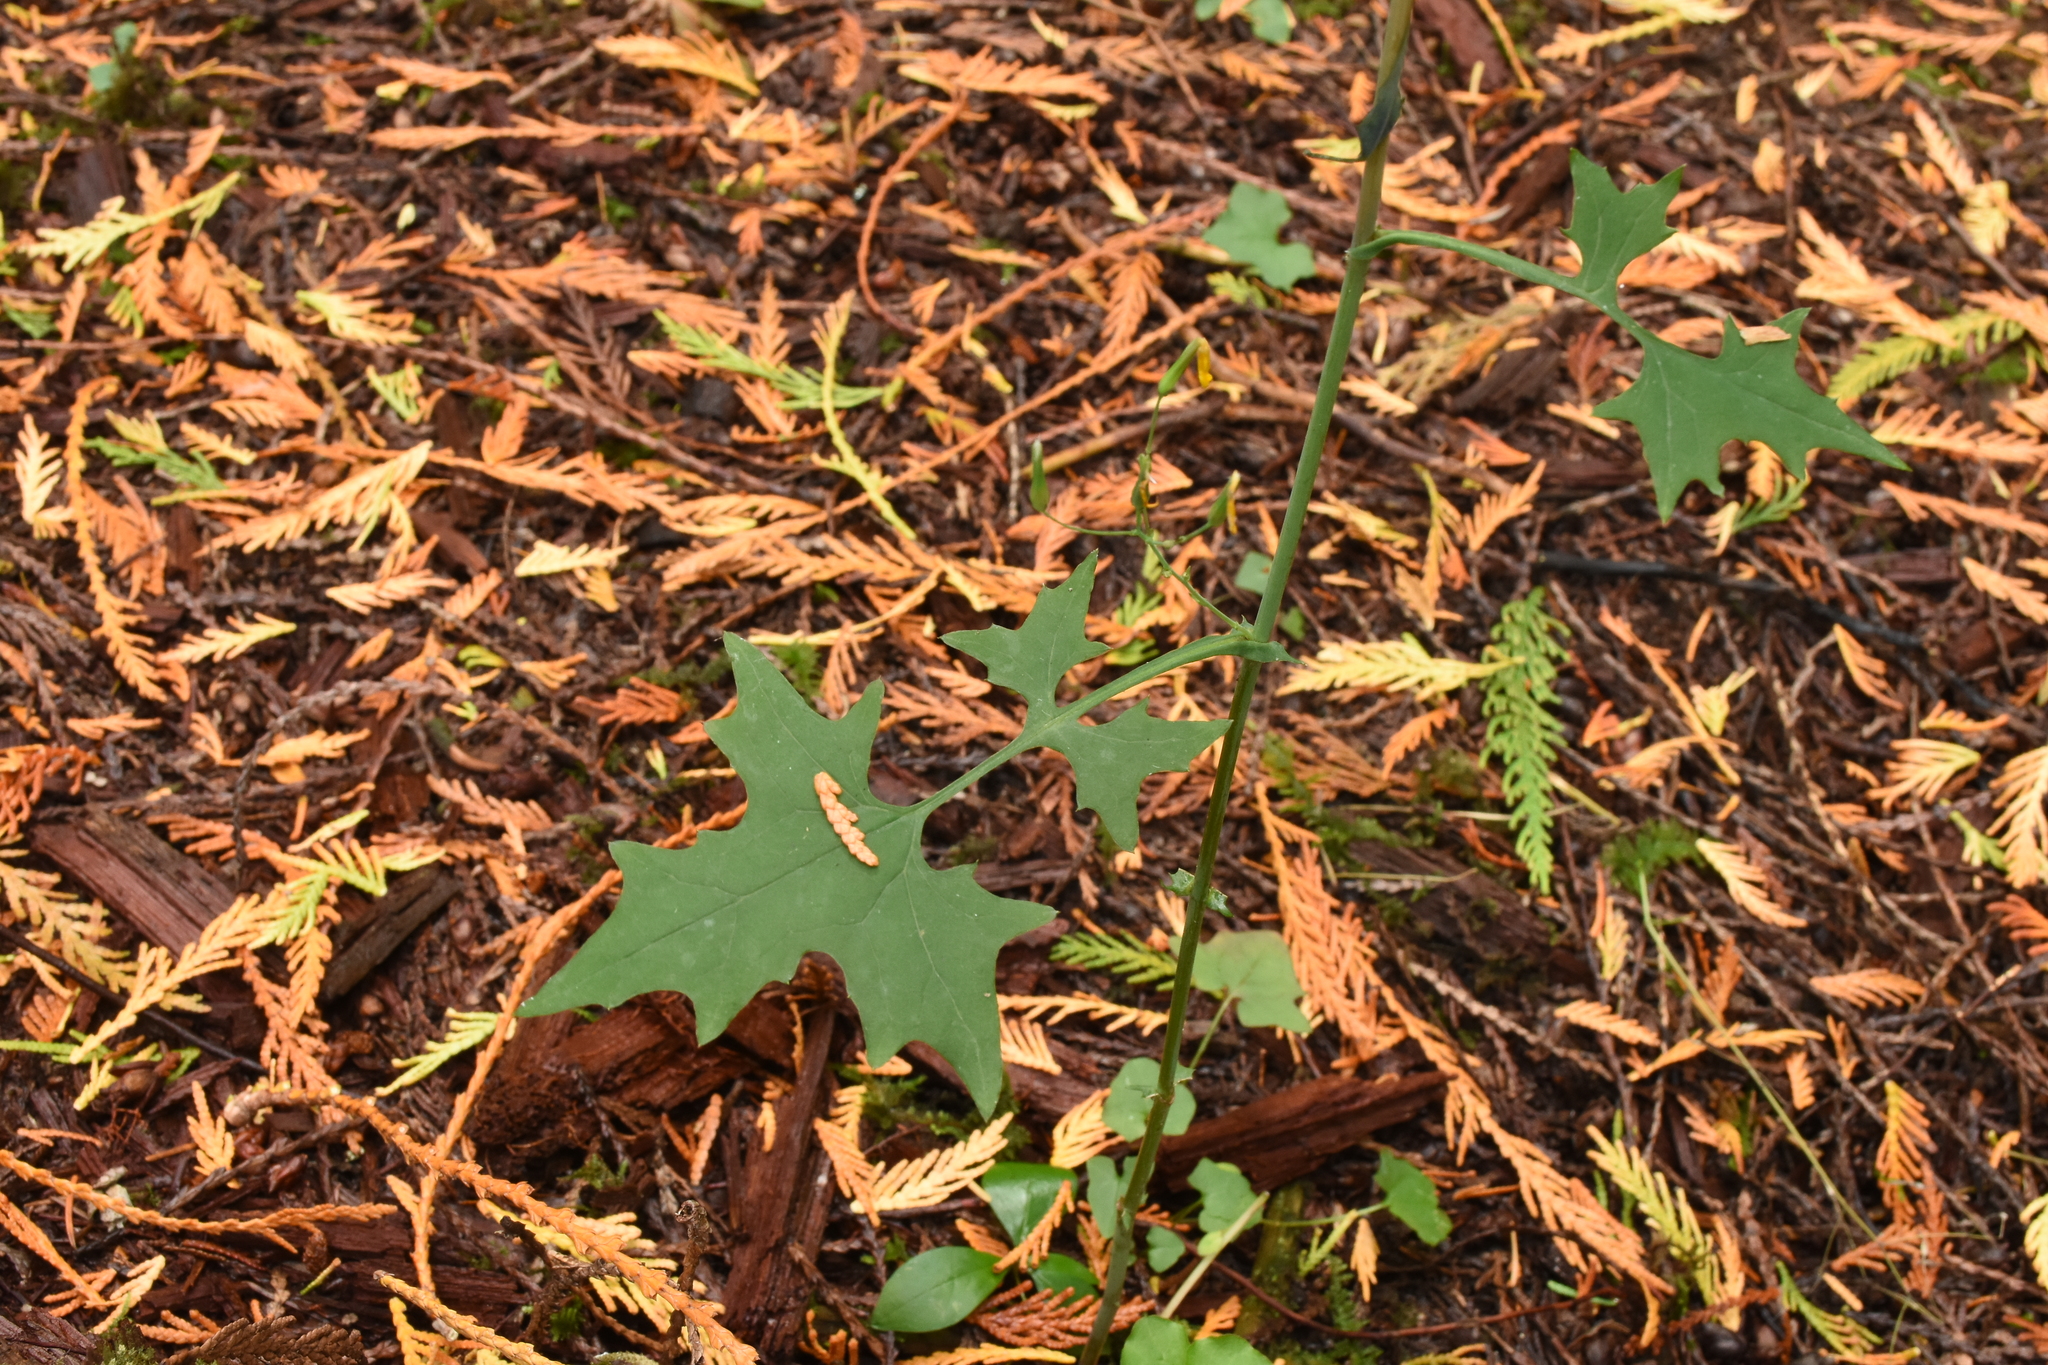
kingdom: Plantae
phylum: Tracheophyta
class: Magnoliopsida
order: Asterales
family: Asteraceae
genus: Mycelis
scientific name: Mycelis muralis
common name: Wall lettuce
